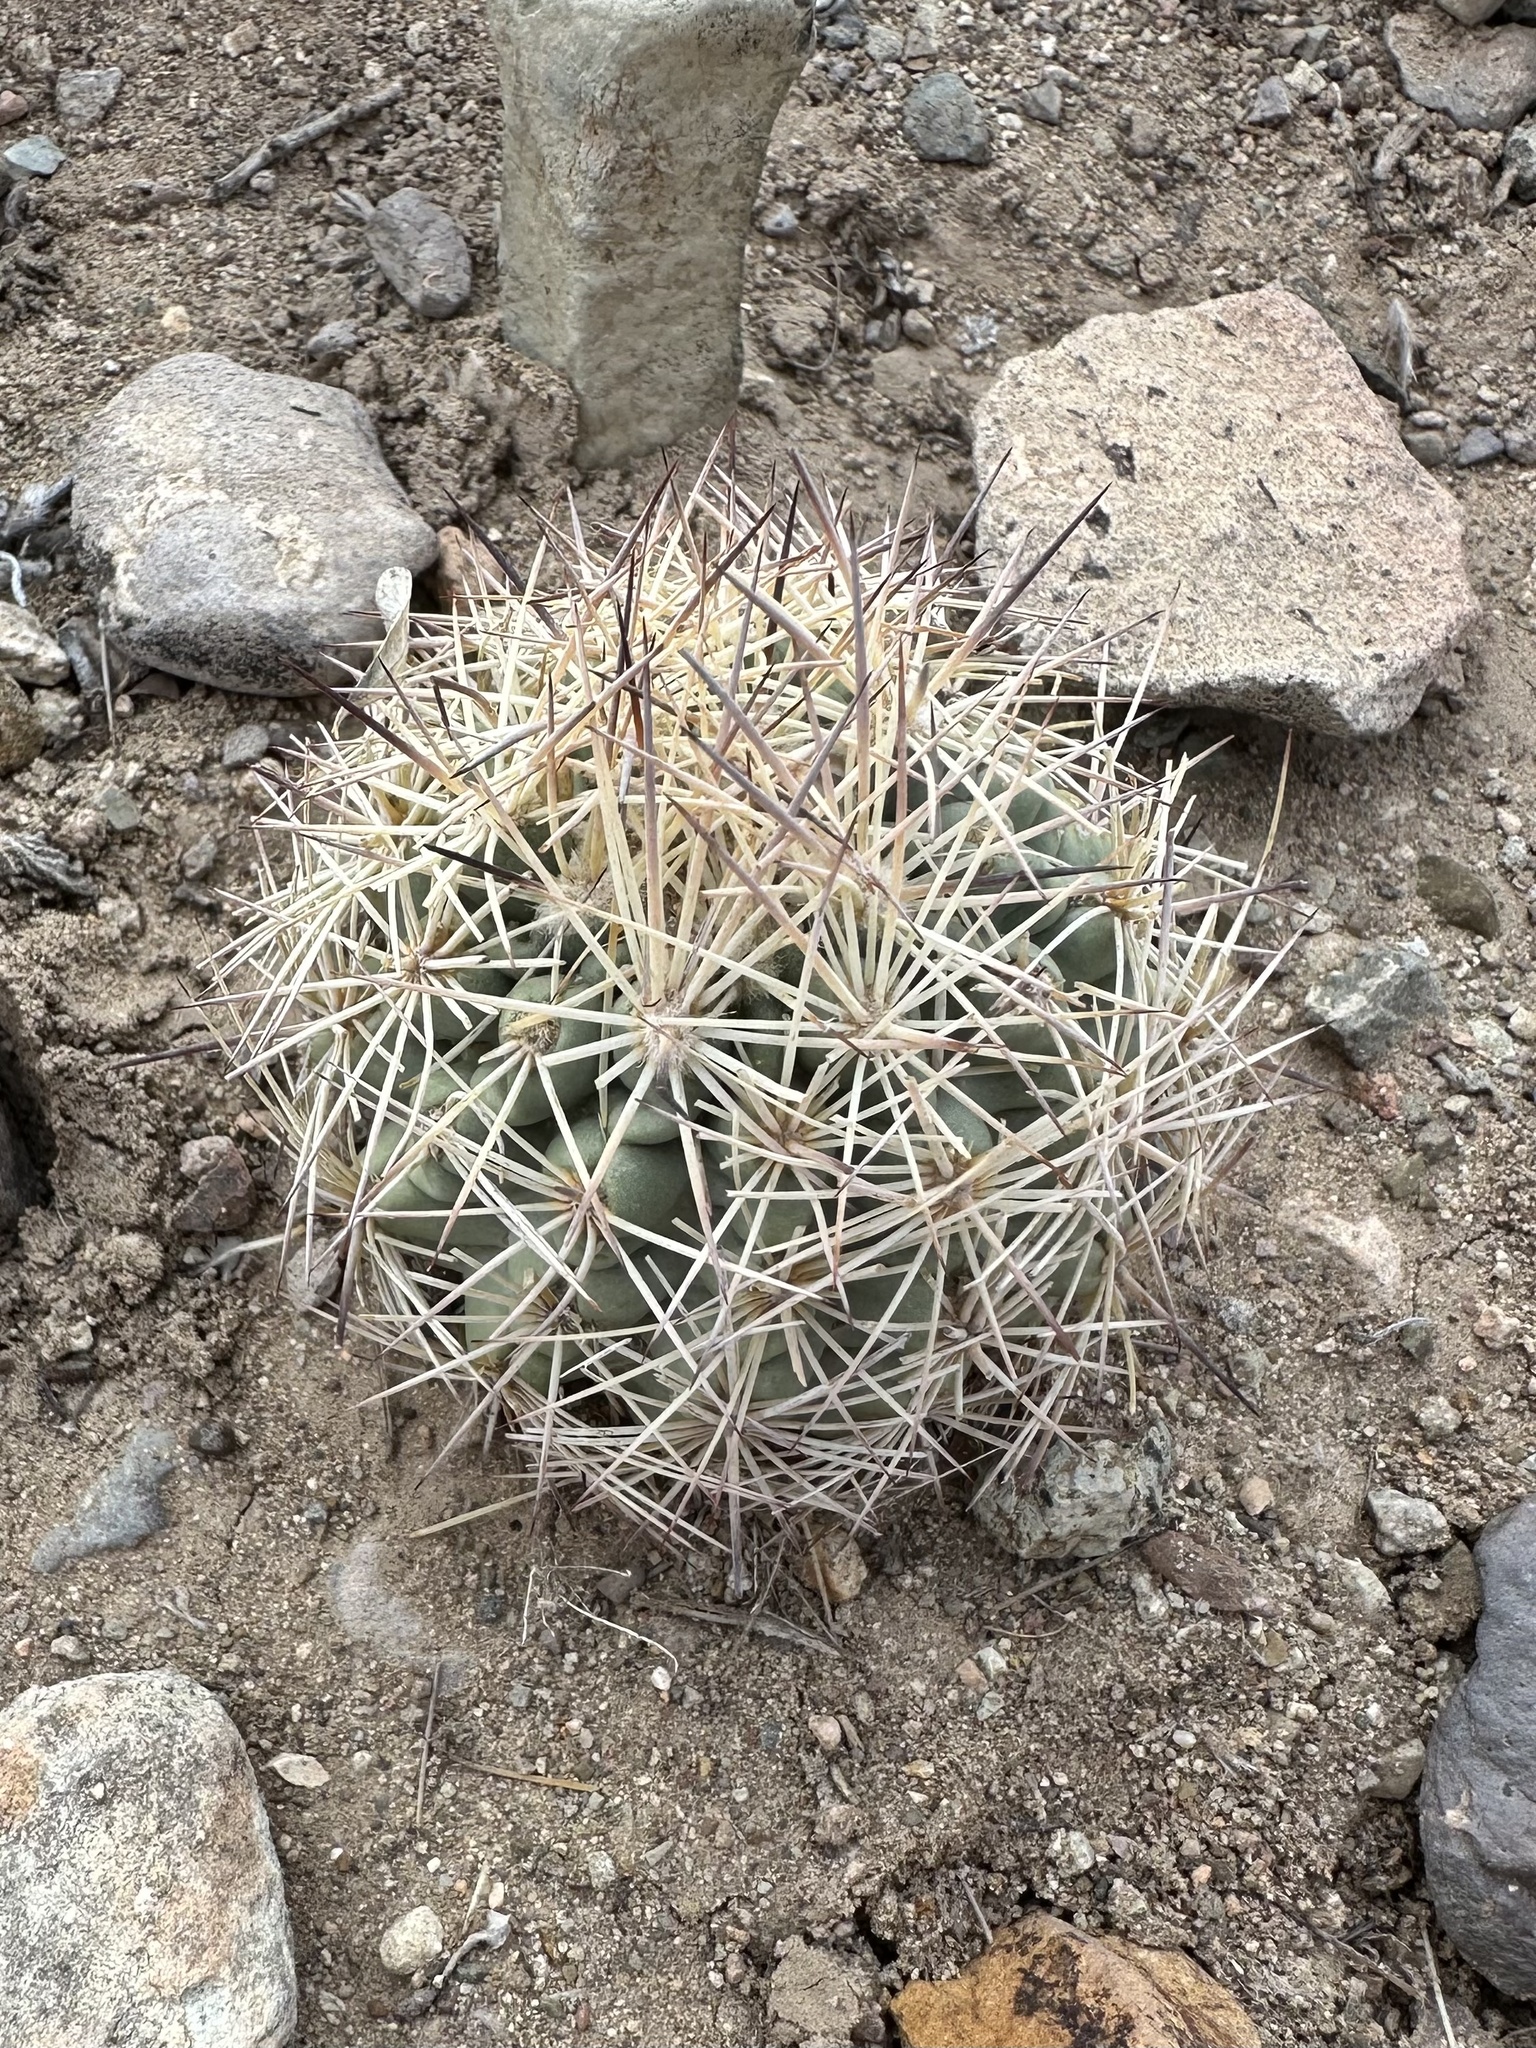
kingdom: Plantae
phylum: Tracheophyta
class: Magnoliopsida
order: Caryophyllales
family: Cactaceae
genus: Sclerocactus
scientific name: Sclerocactus warnockii
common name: Pineapple cactus
